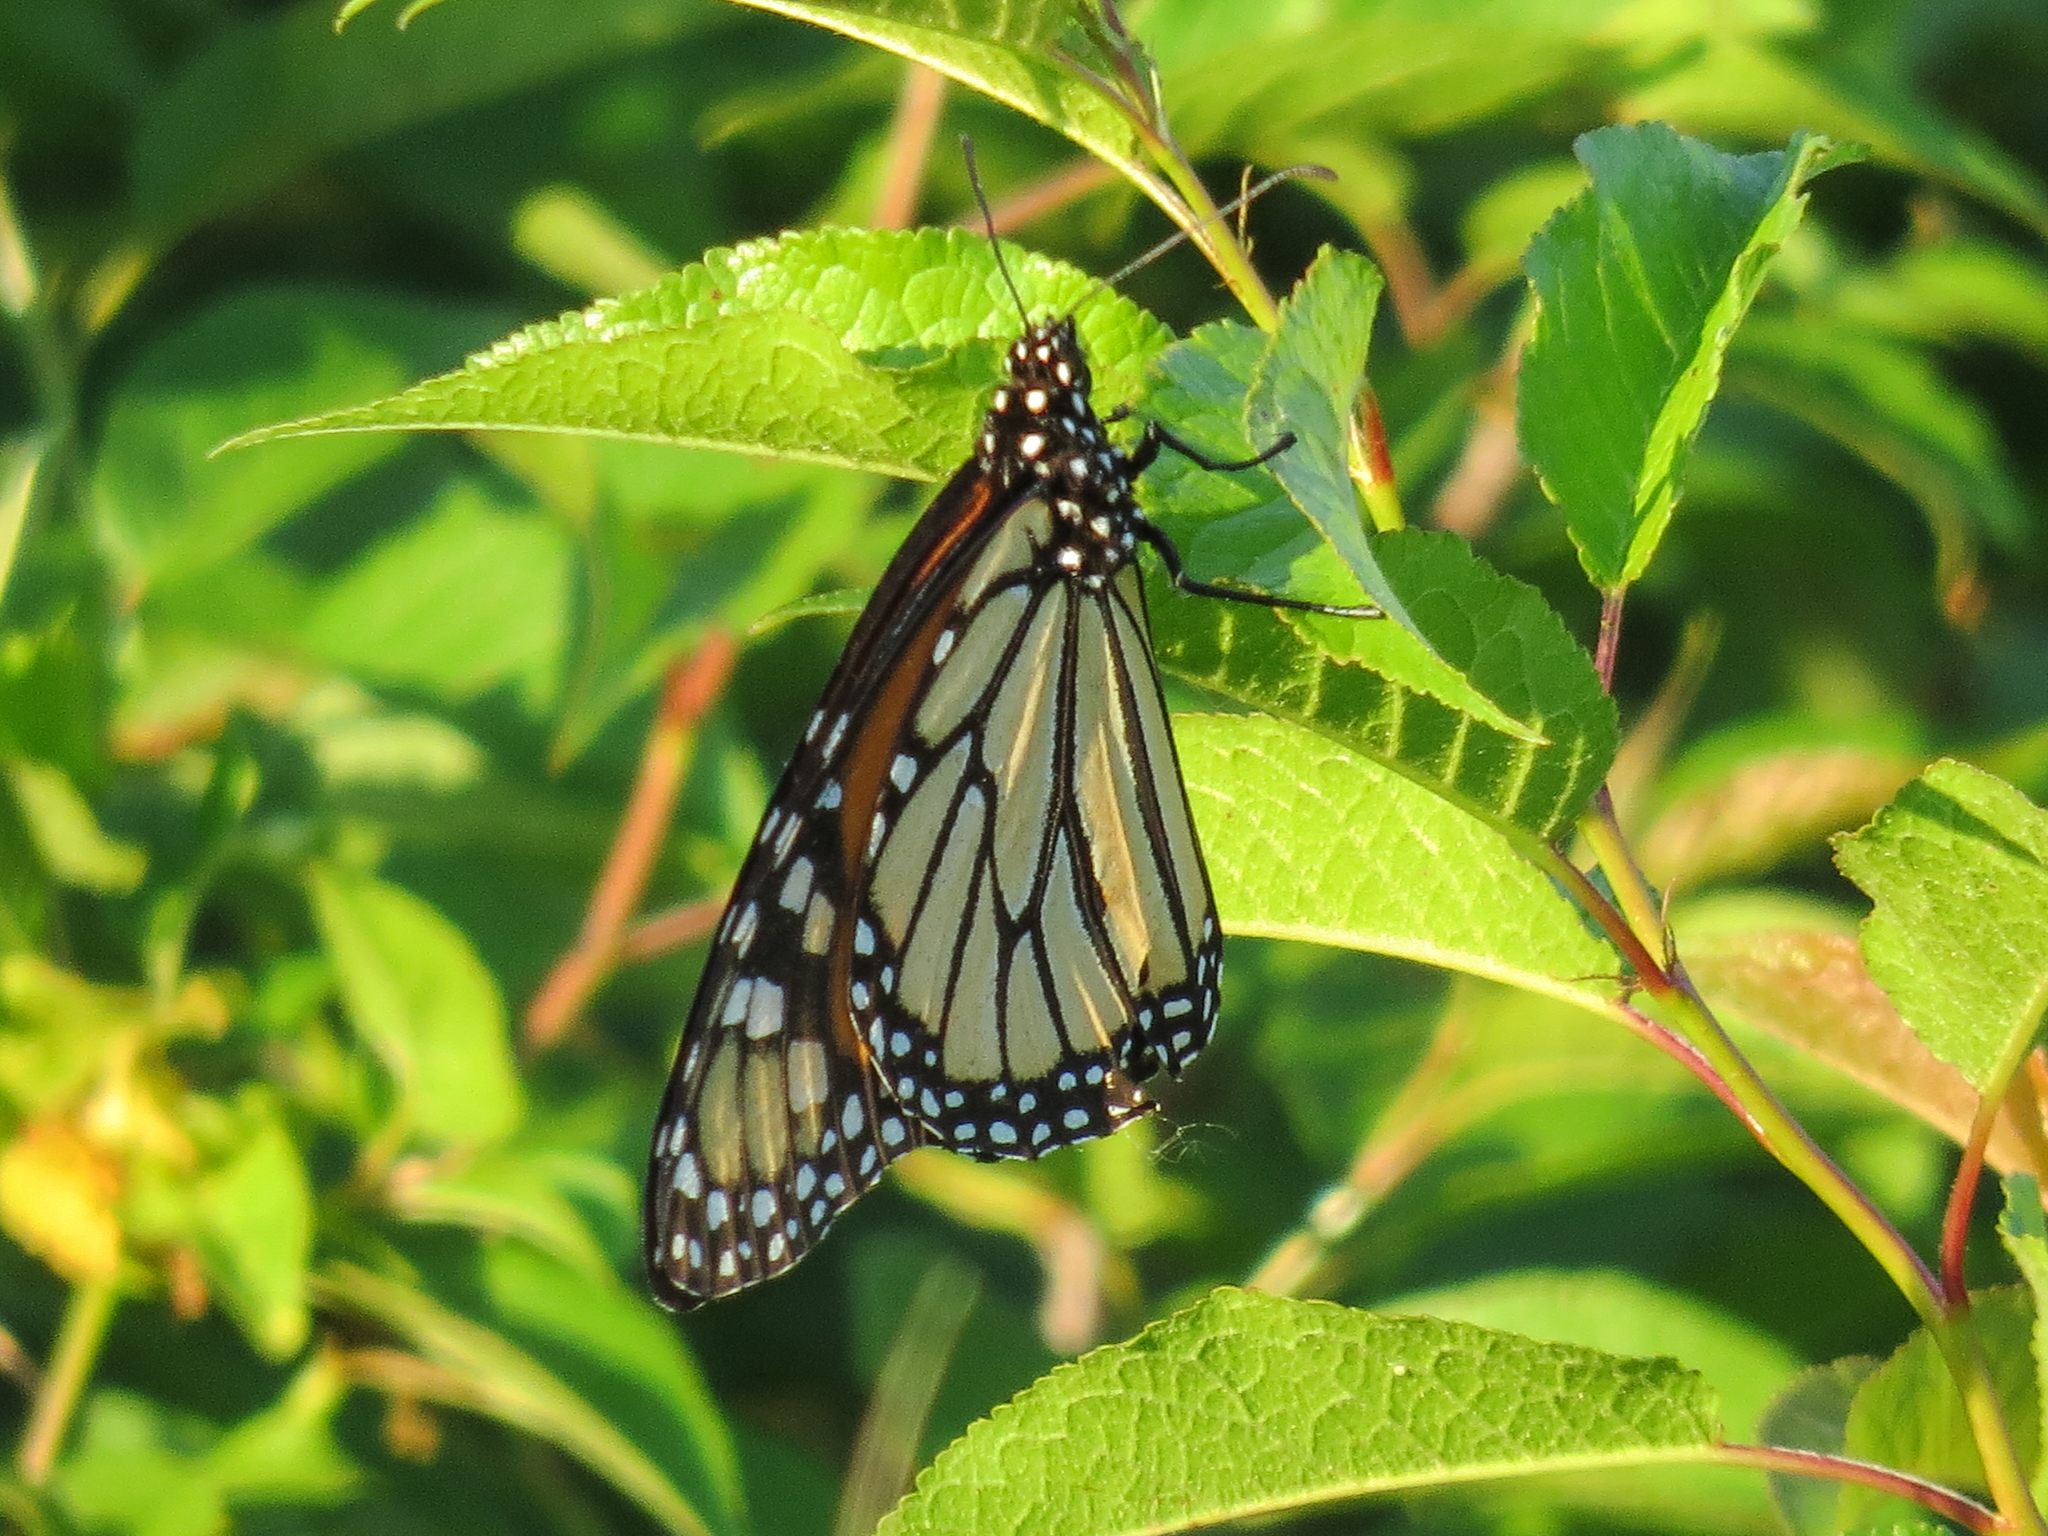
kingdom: Animalia
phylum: Arthropoda
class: Insecta
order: Lepidoptera
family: Nymphalidae
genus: Danaus
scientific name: Danaus plexippus
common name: Monarch
